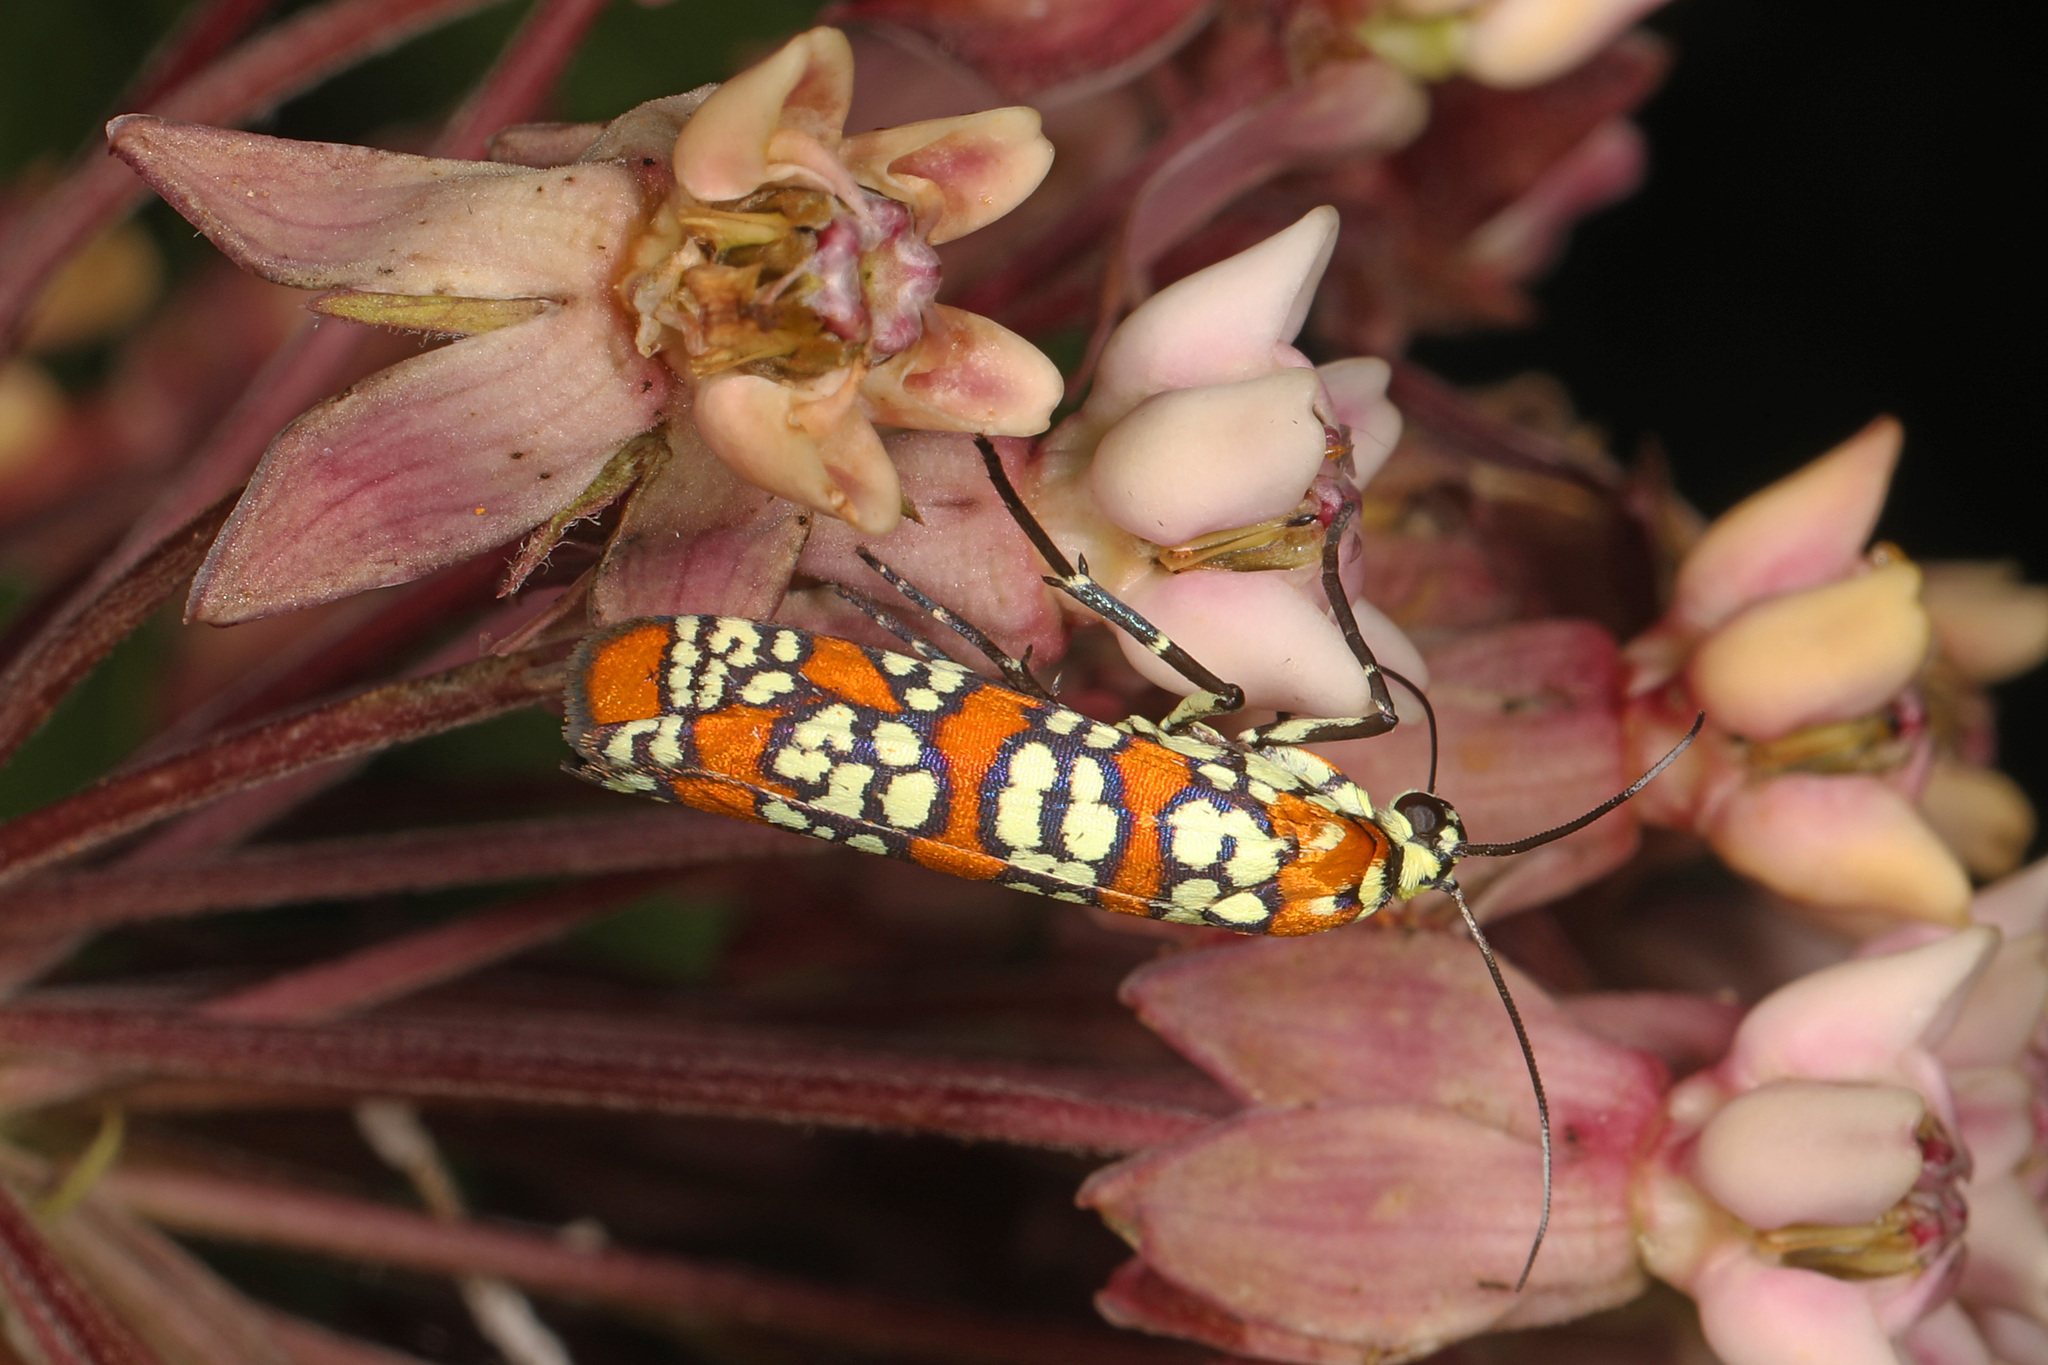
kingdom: Animalia
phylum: Arthropoda
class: Insecta
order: Lepidoptera
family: Attevidae
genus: Atteva
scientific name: Atteva punctella
